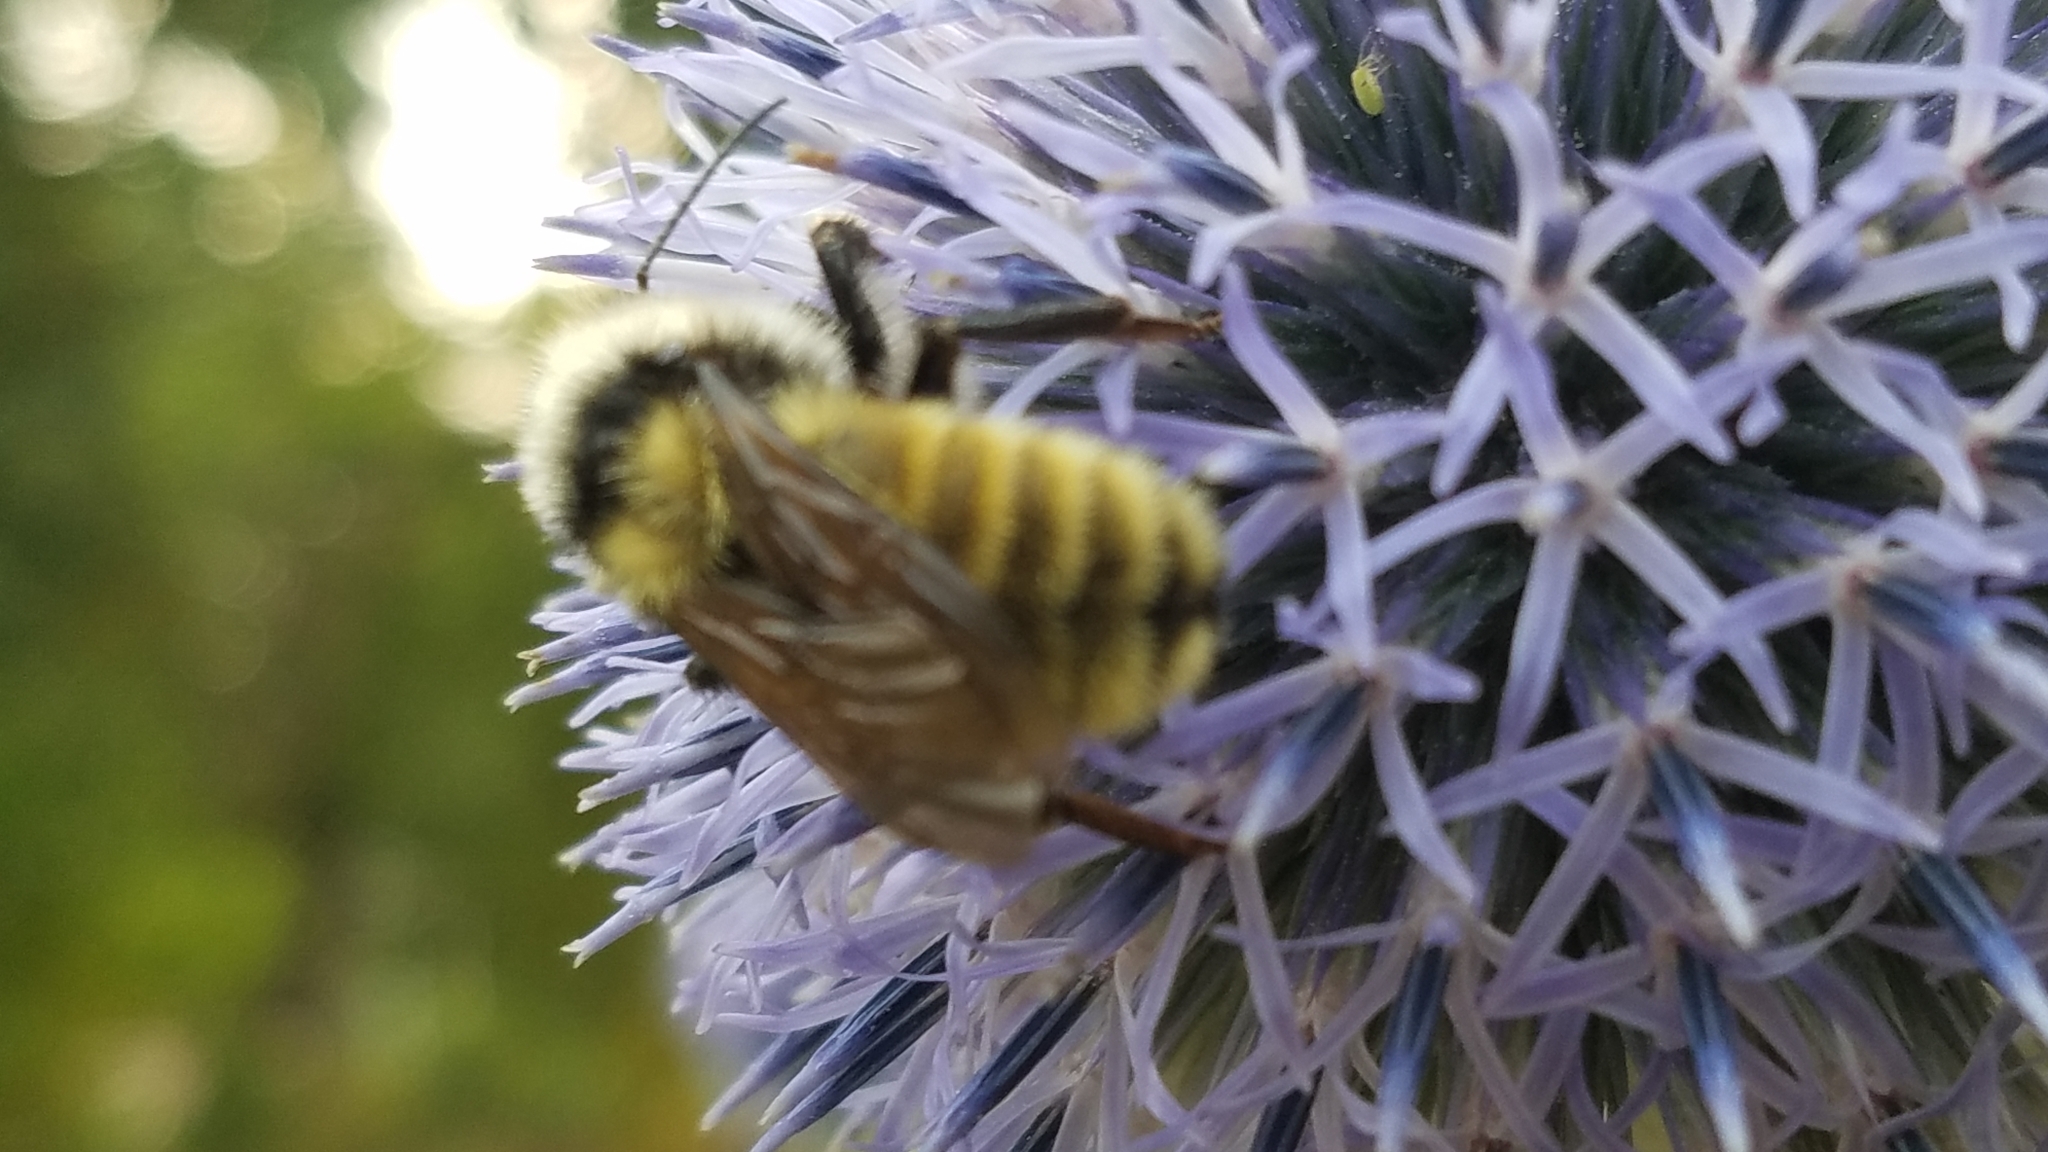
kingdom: Animalia
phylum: Arthropoda
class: Insecta
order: Hymenoptera
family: Apidae
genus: Bombus
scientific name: Bombus appositus
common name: White-shouldered bumble bee
